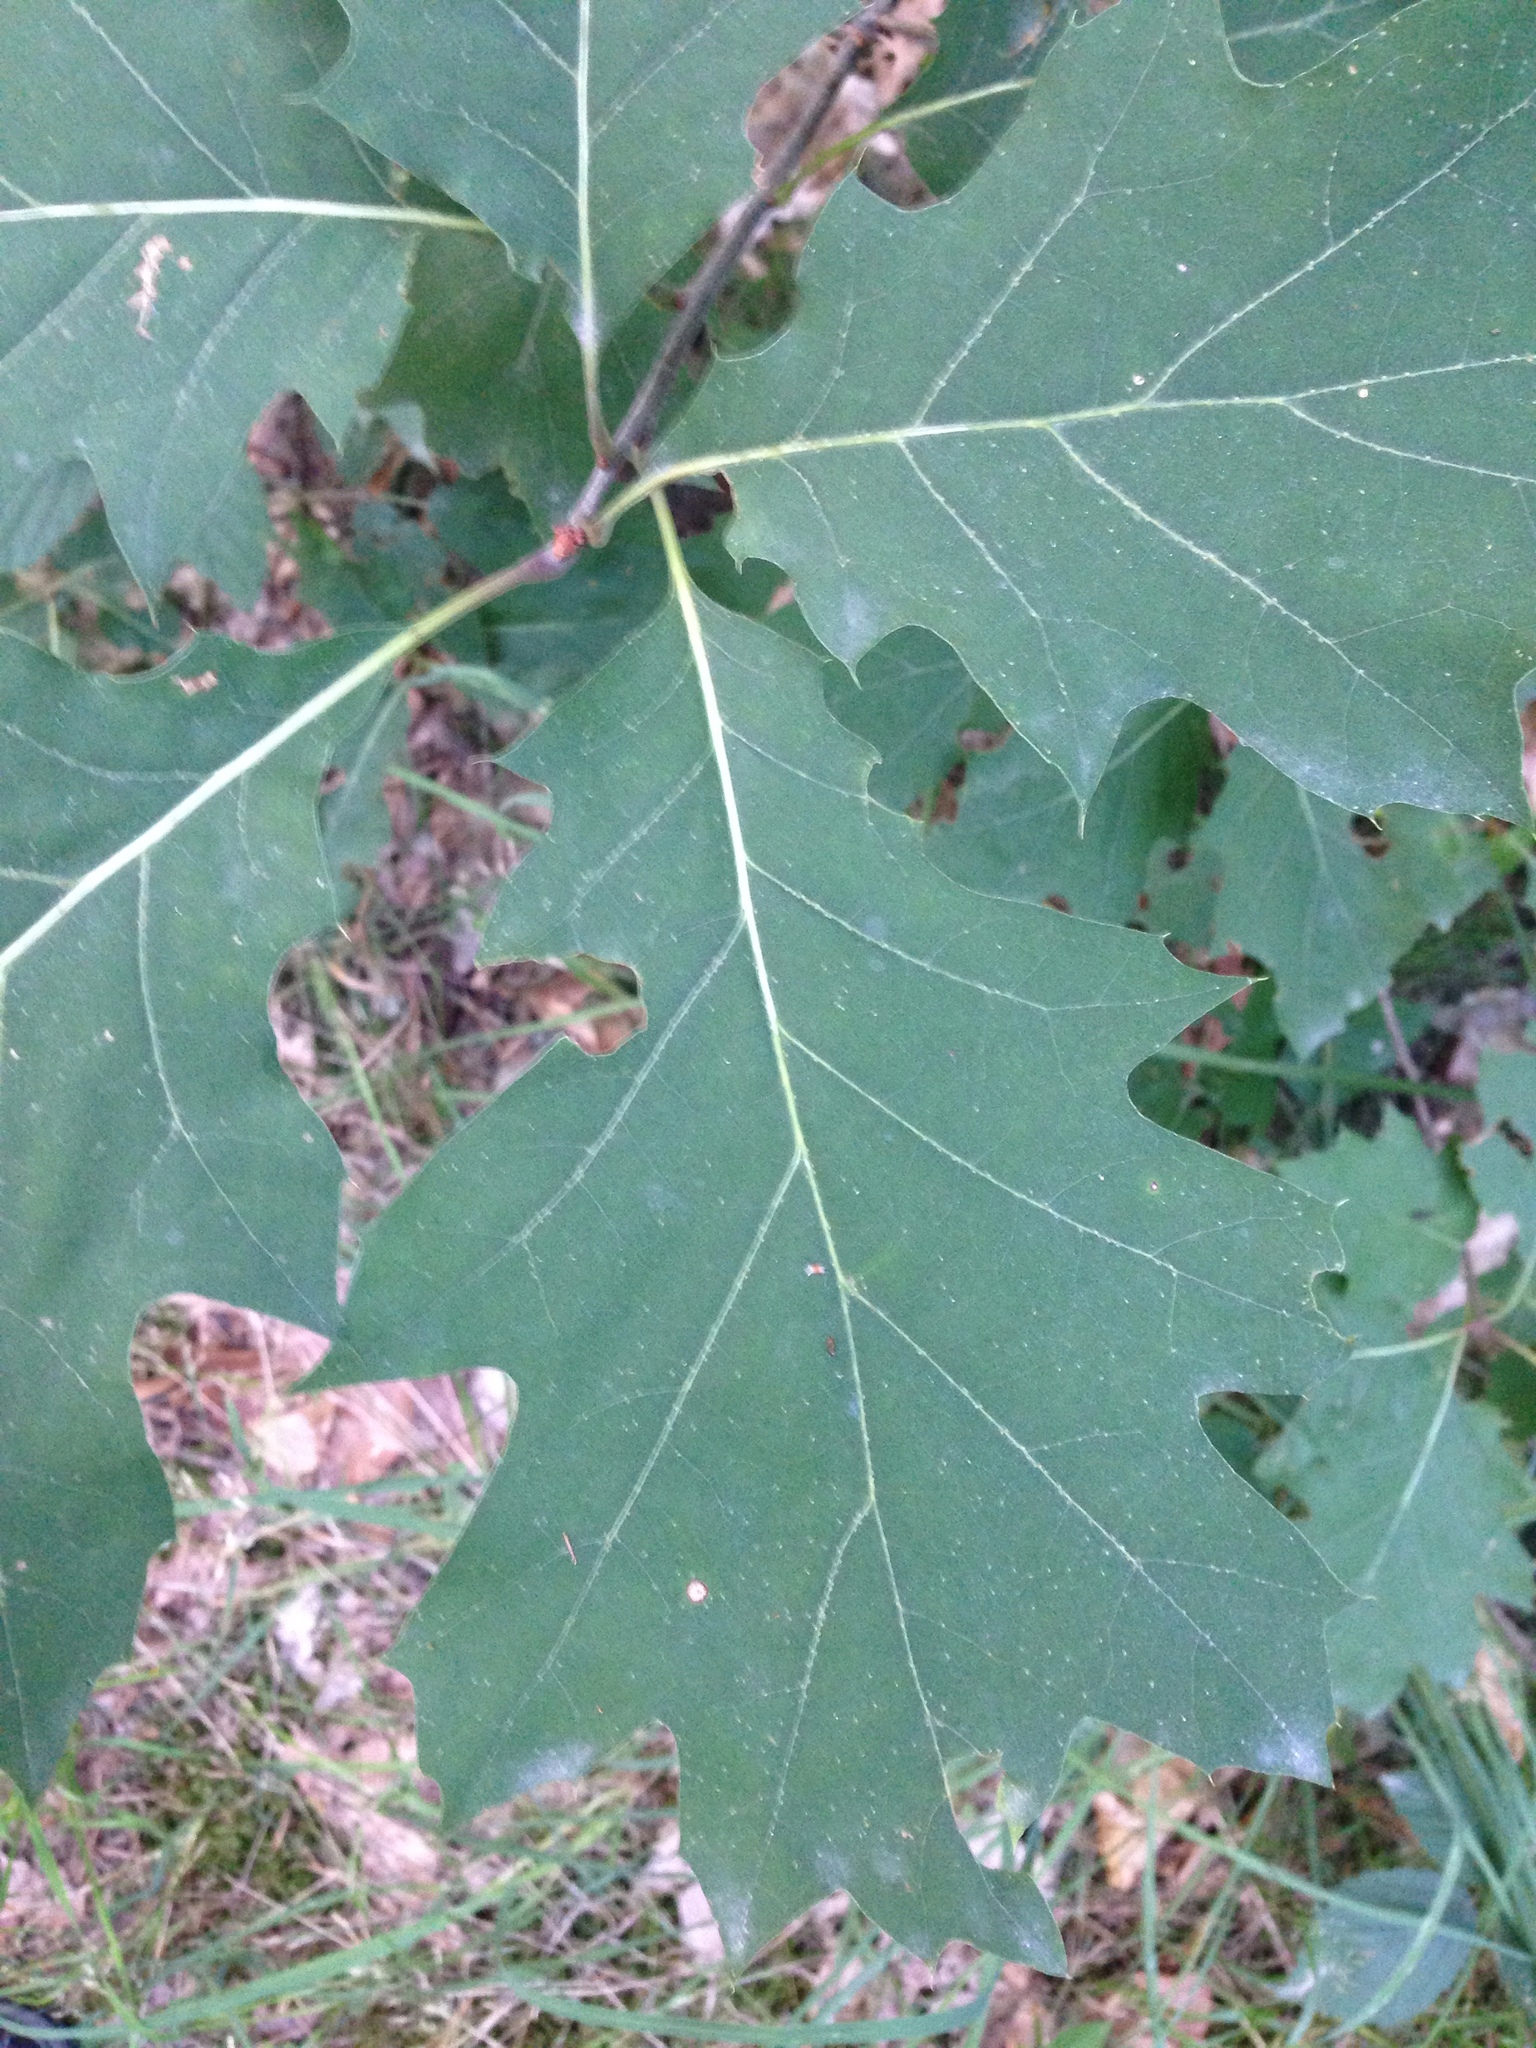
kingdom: Plantae
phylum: Tracheophyta
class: Magnoliopsida
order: Fagales
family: Fagaceae
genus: Quercus
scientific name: Quercus rubra
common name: Red oak
